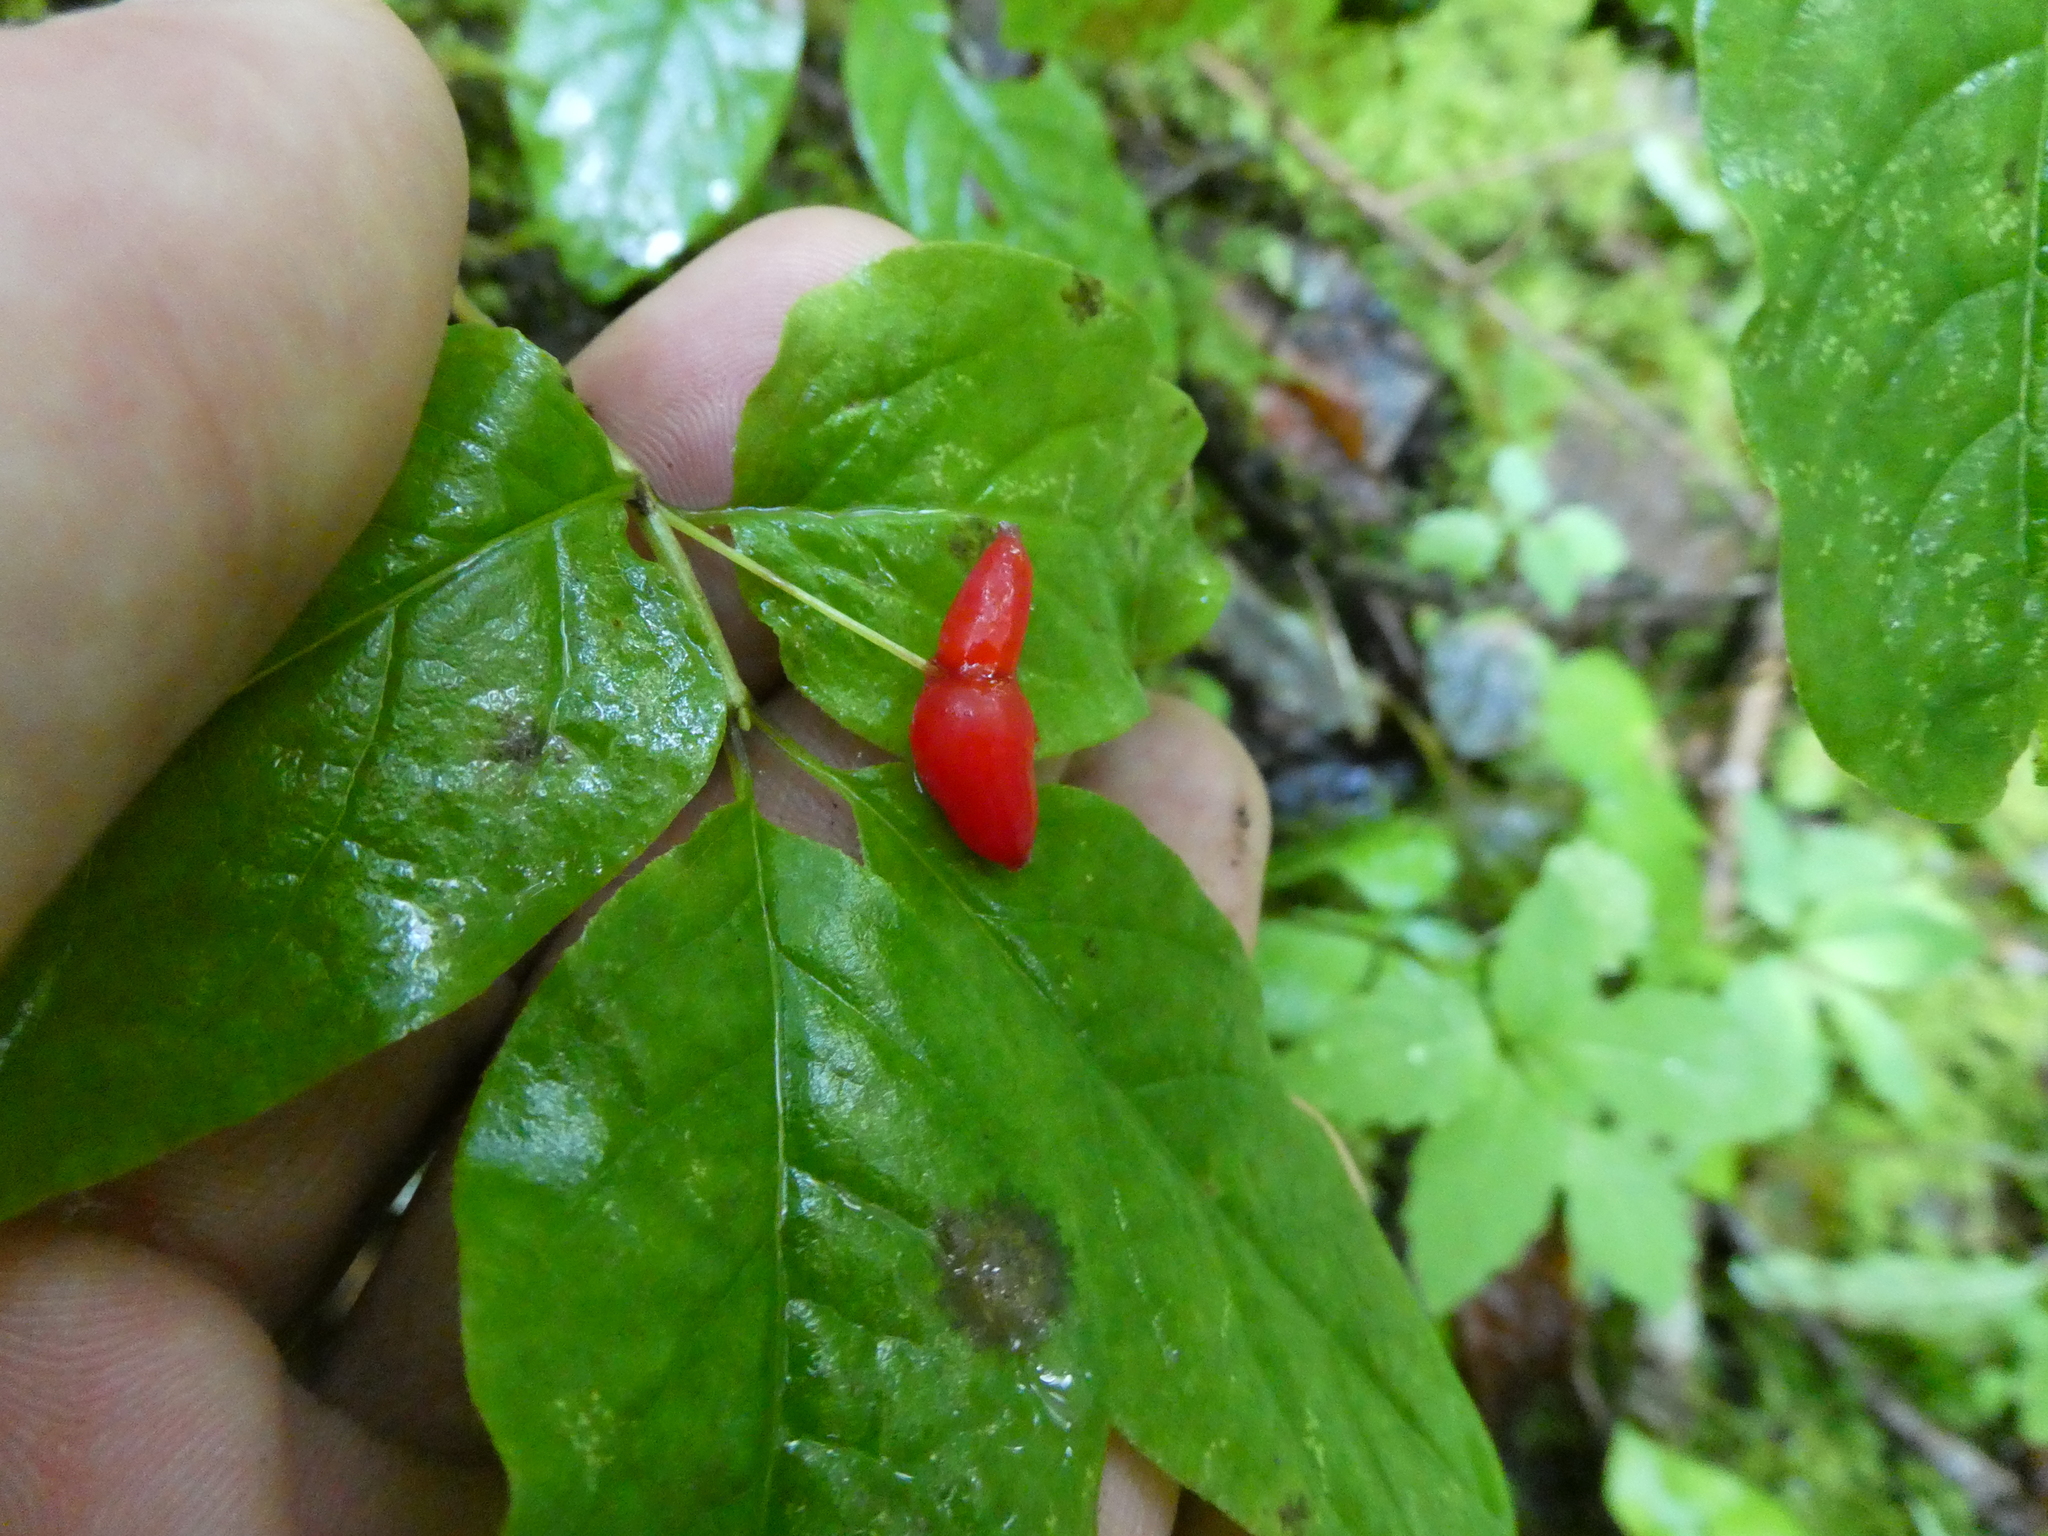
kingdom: Plantae
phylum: Tracheophyta
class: Magnoliopsida
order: Dipsacales
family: Caprifoliaceae
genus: Lonicera
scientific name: Lonicera canadensis
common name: American fly-honeysuckle
